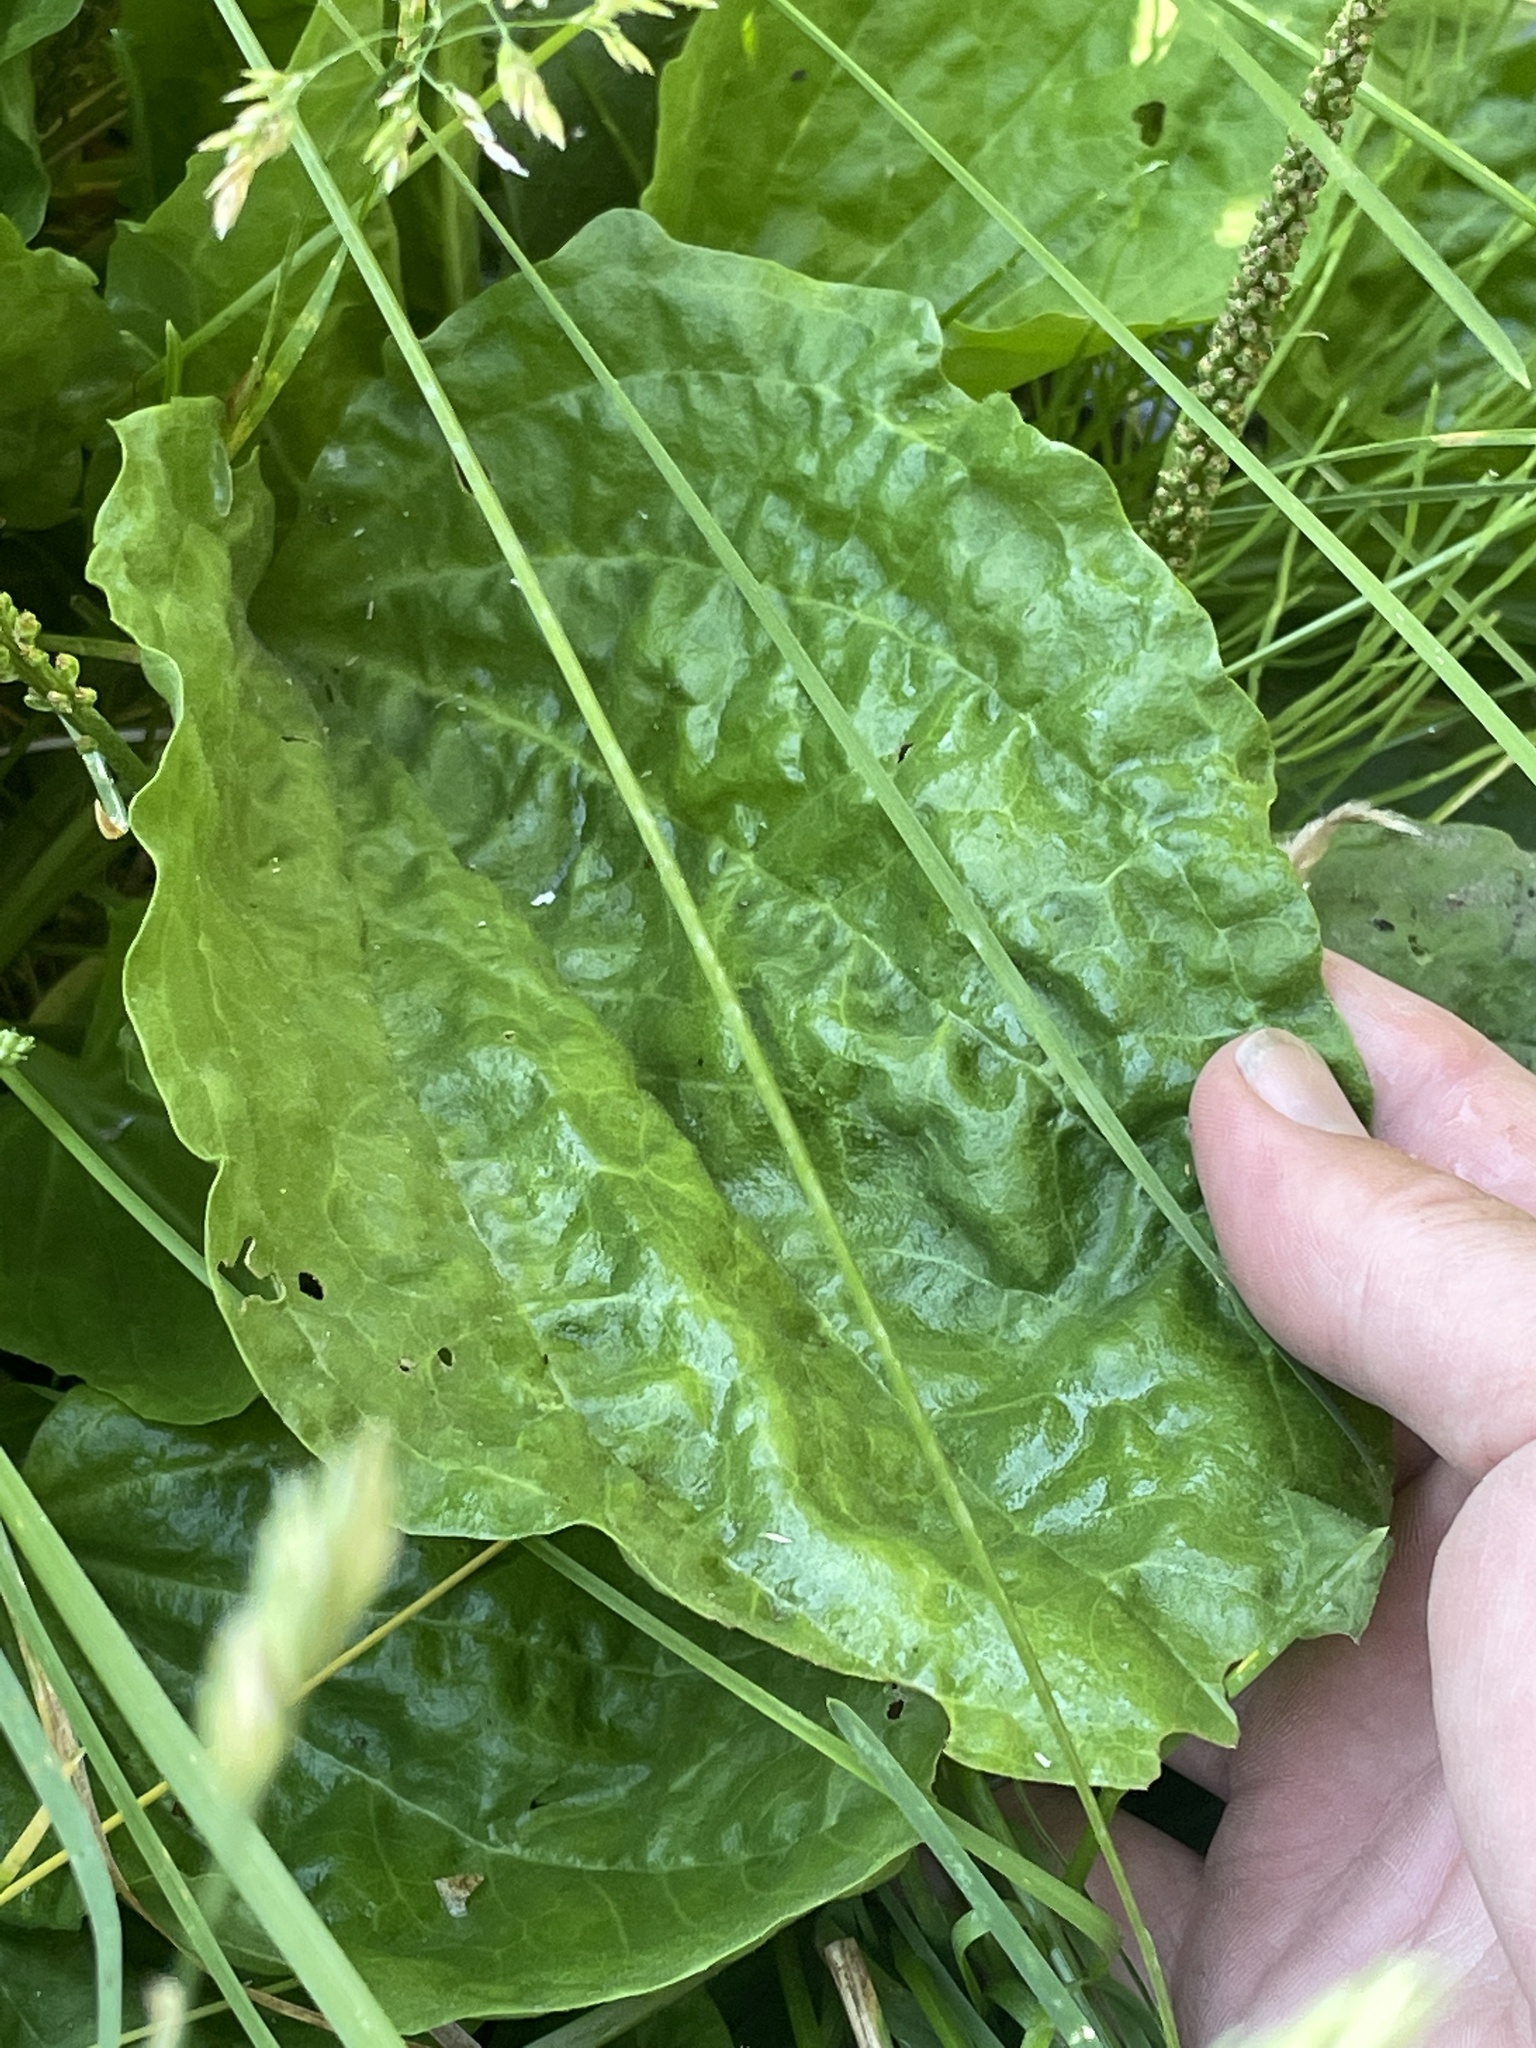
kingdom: Plantae
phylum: Tracheophyta
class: Magnoliopsida
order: Lamiales
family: Plantaginaceae
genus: Plantago
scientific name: Plantago major
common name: Common plantain
